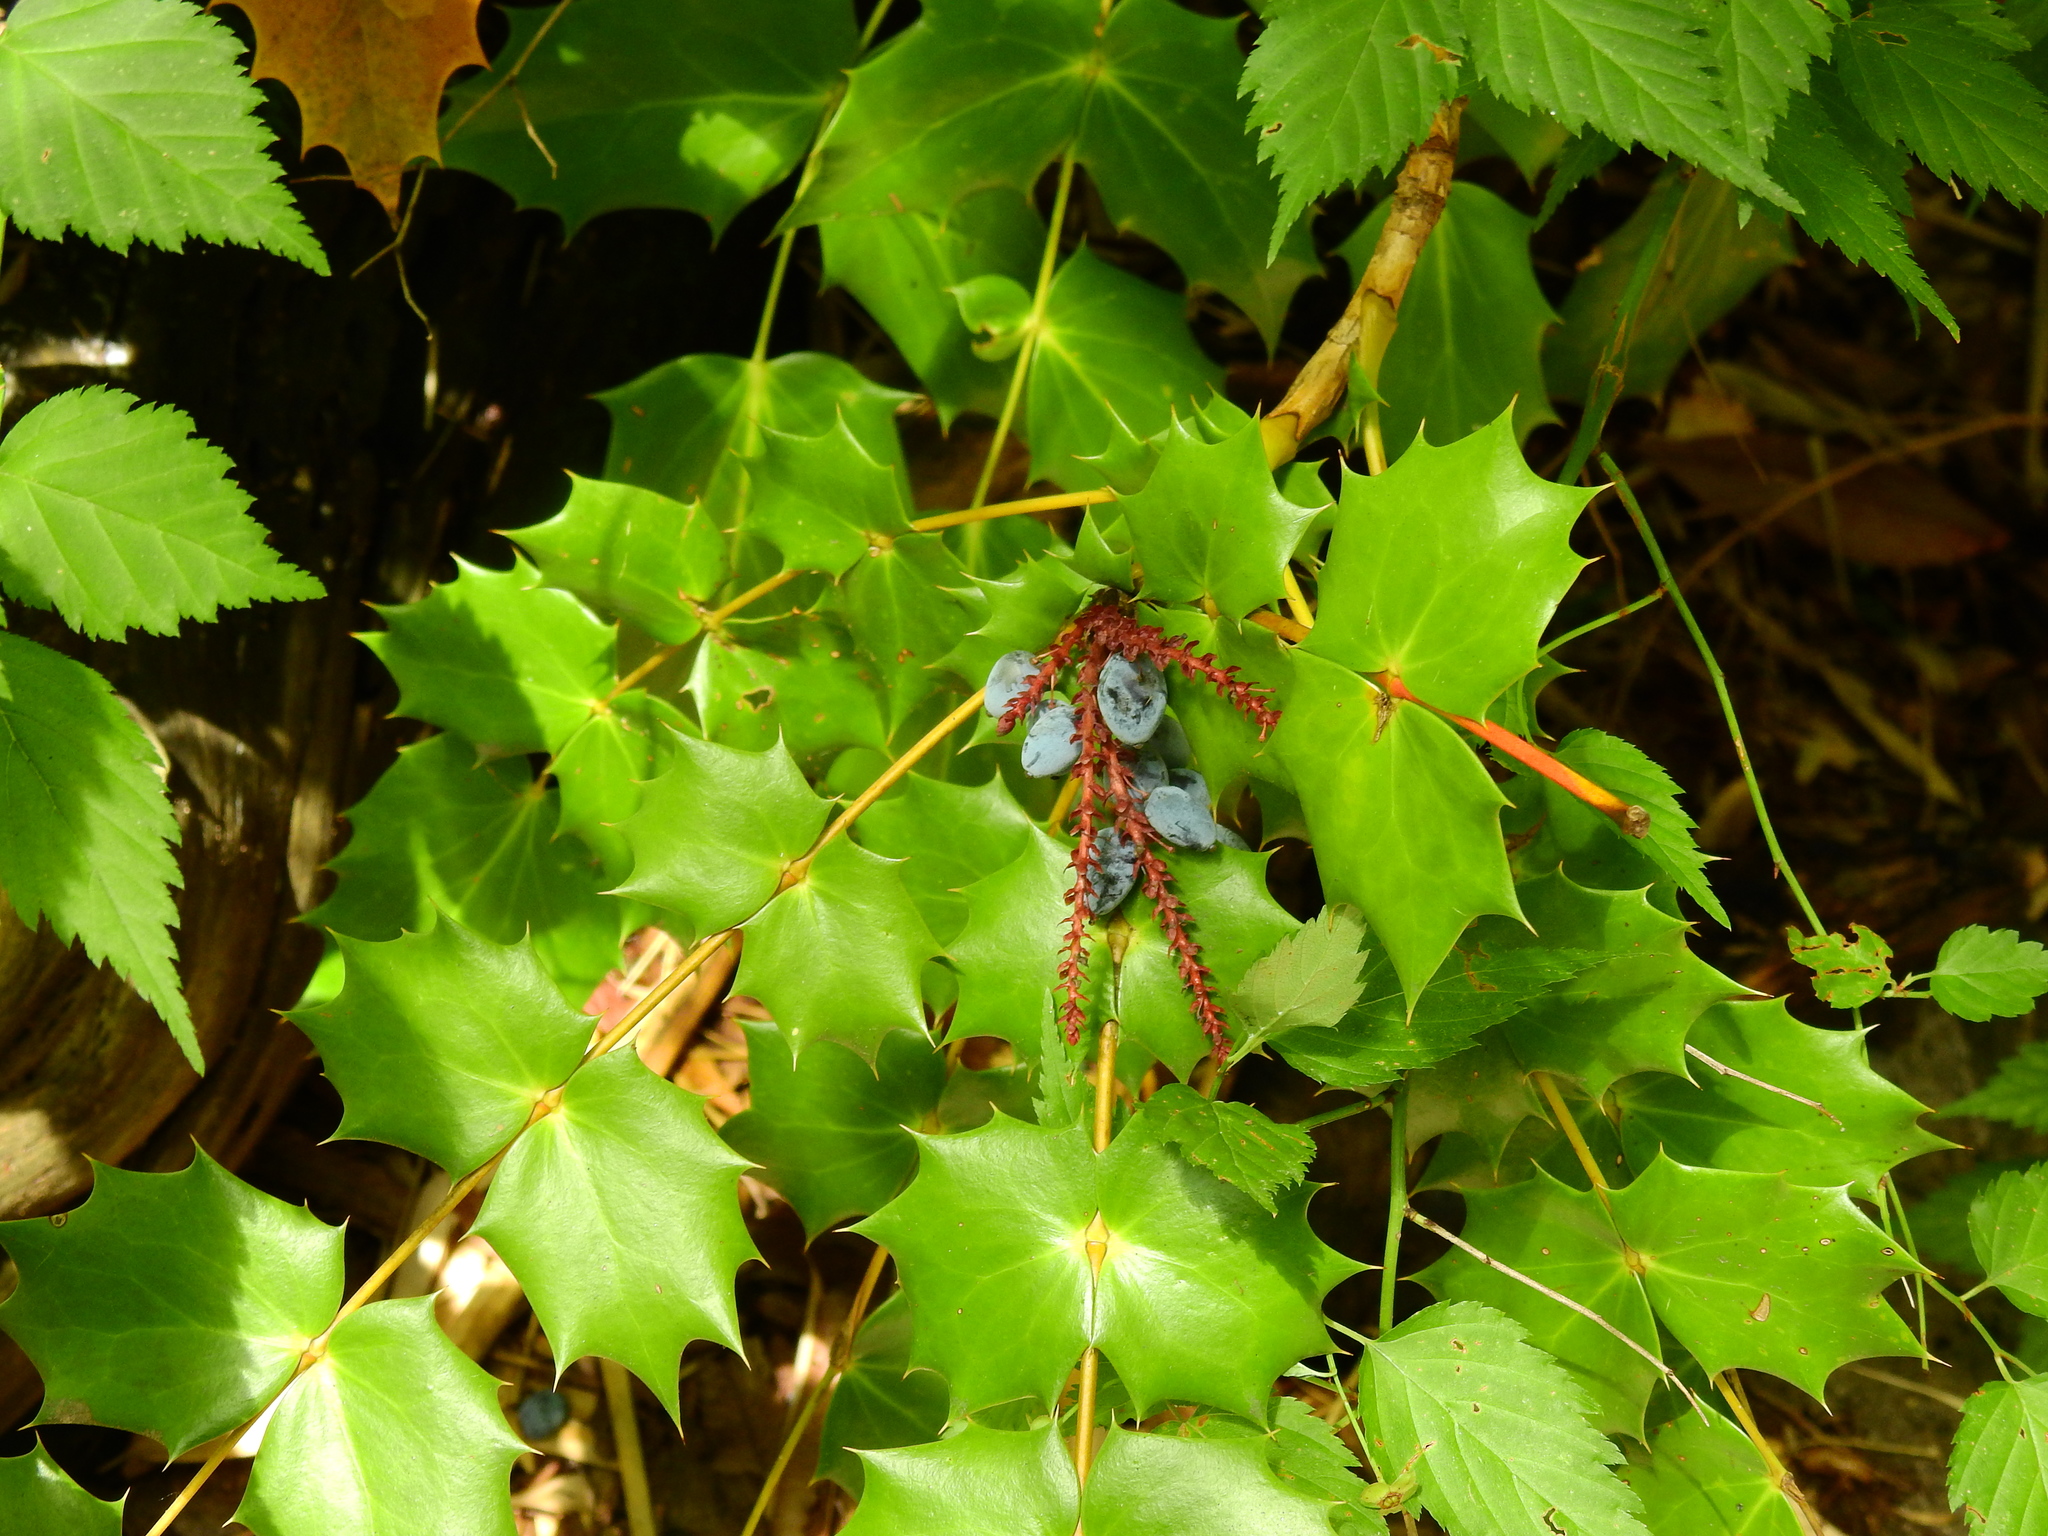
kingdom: Plantae
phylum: Tracheophyta
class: Magnoliopsida
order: Ranunculales
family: Berberidaceae
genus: Mahonia
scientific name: Mahonia bealei
